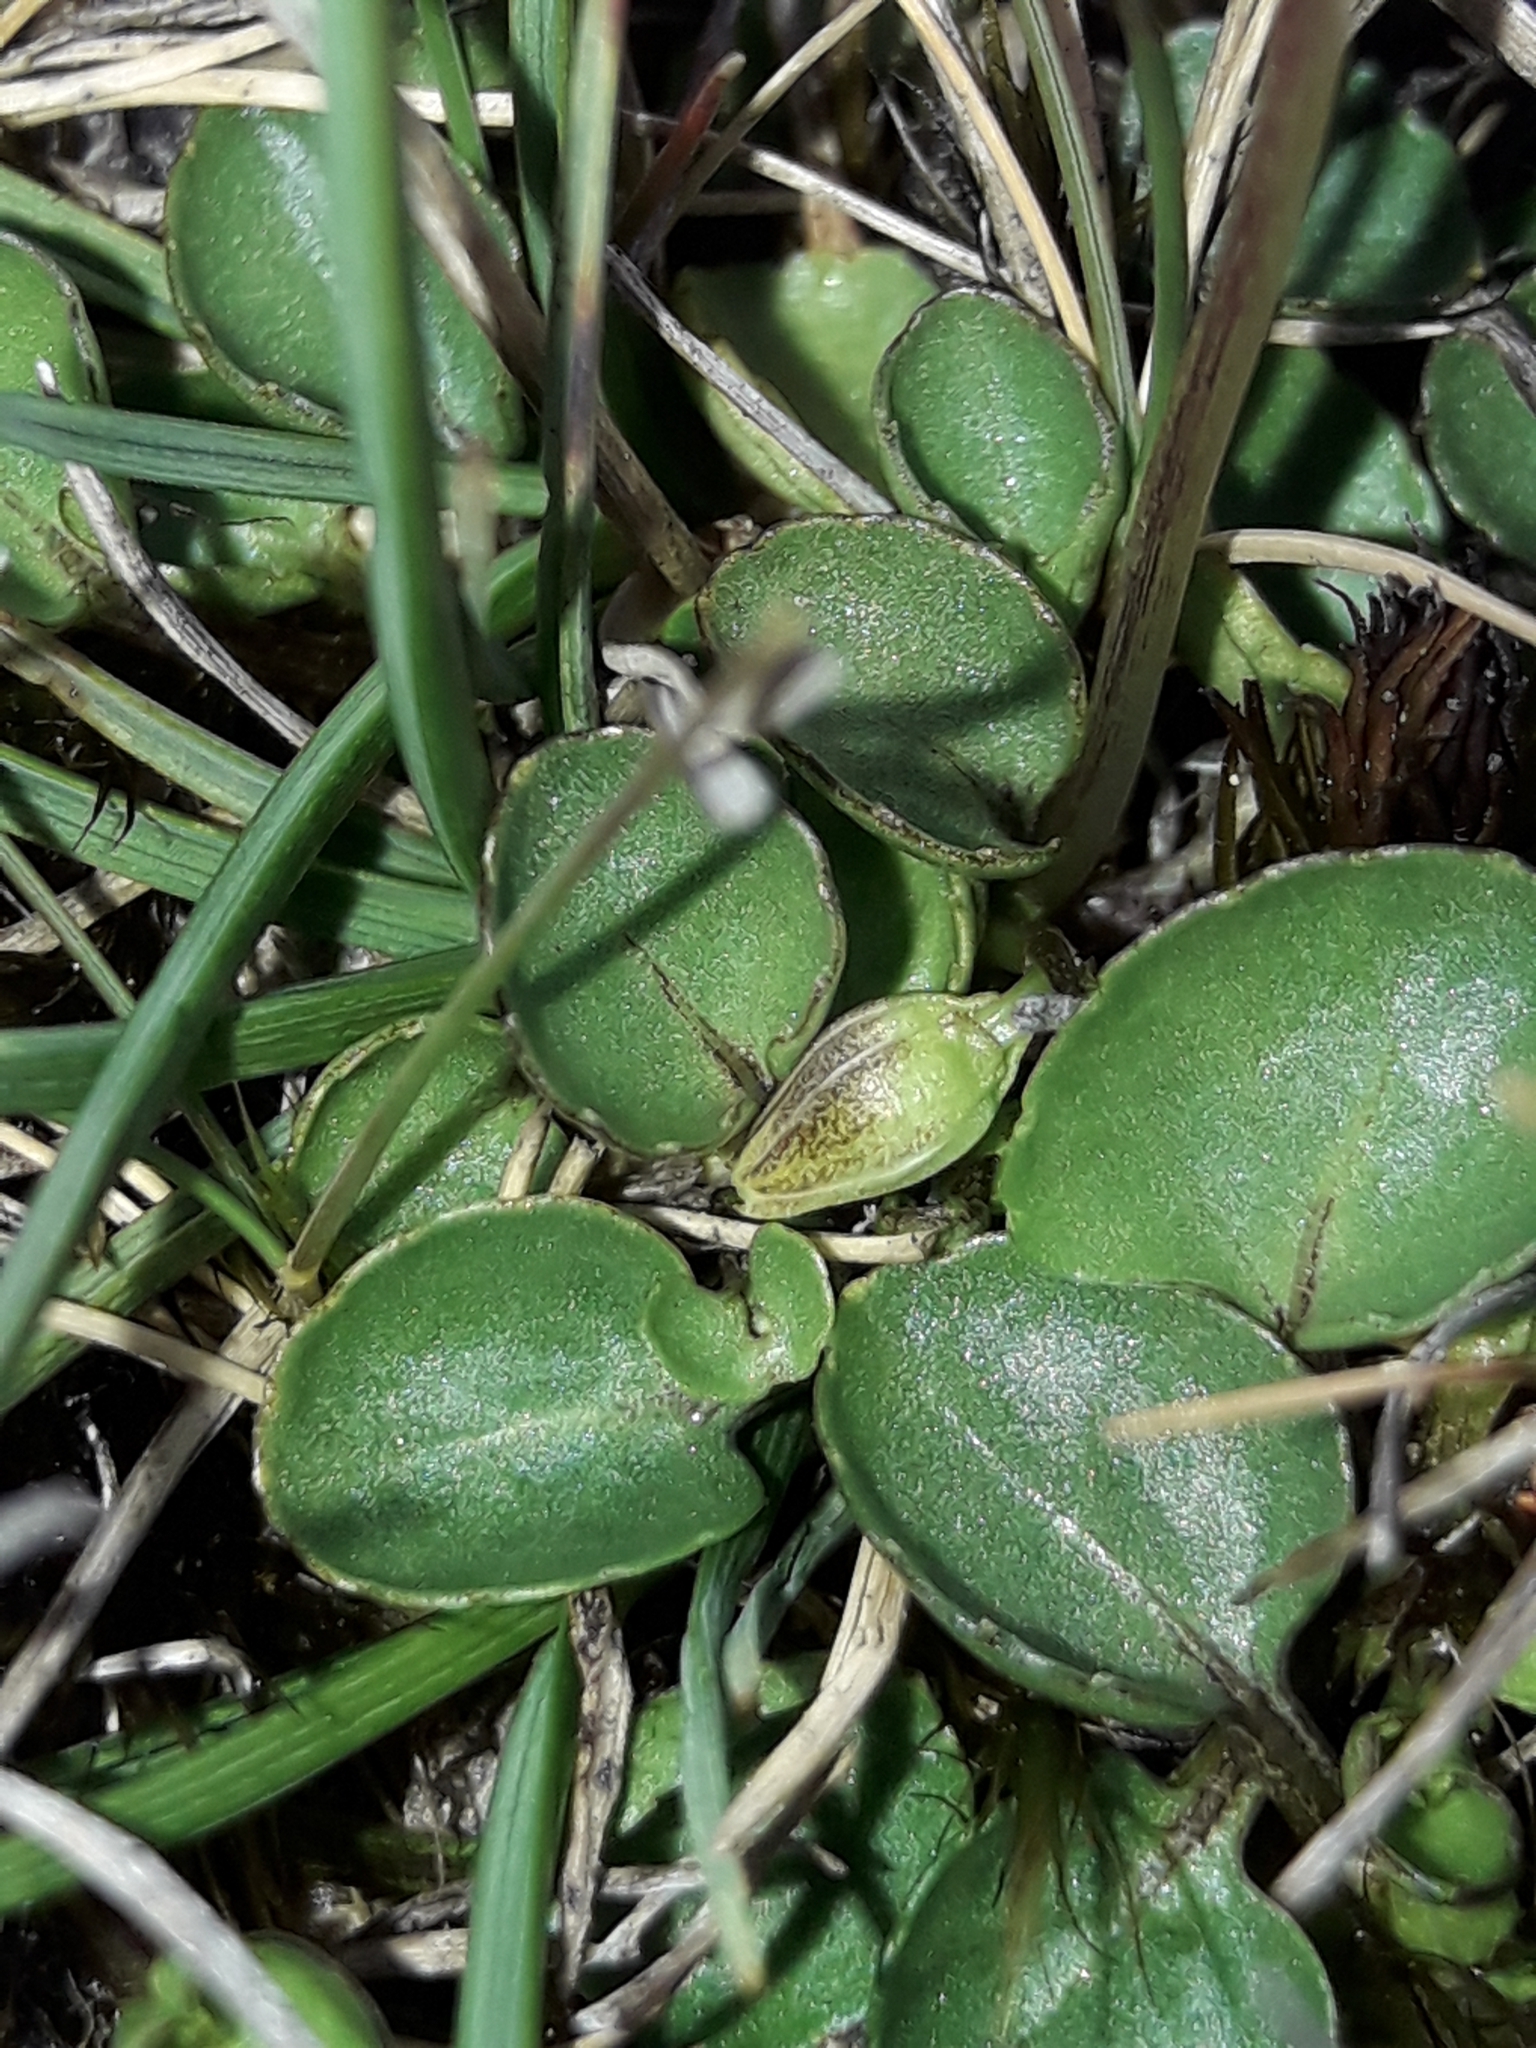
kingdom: Plantae
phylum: Tracheophyta
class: Magnoliopsida
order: Malpighiales
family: Violaceae
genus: Viola
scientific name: Viola cunninghamii
